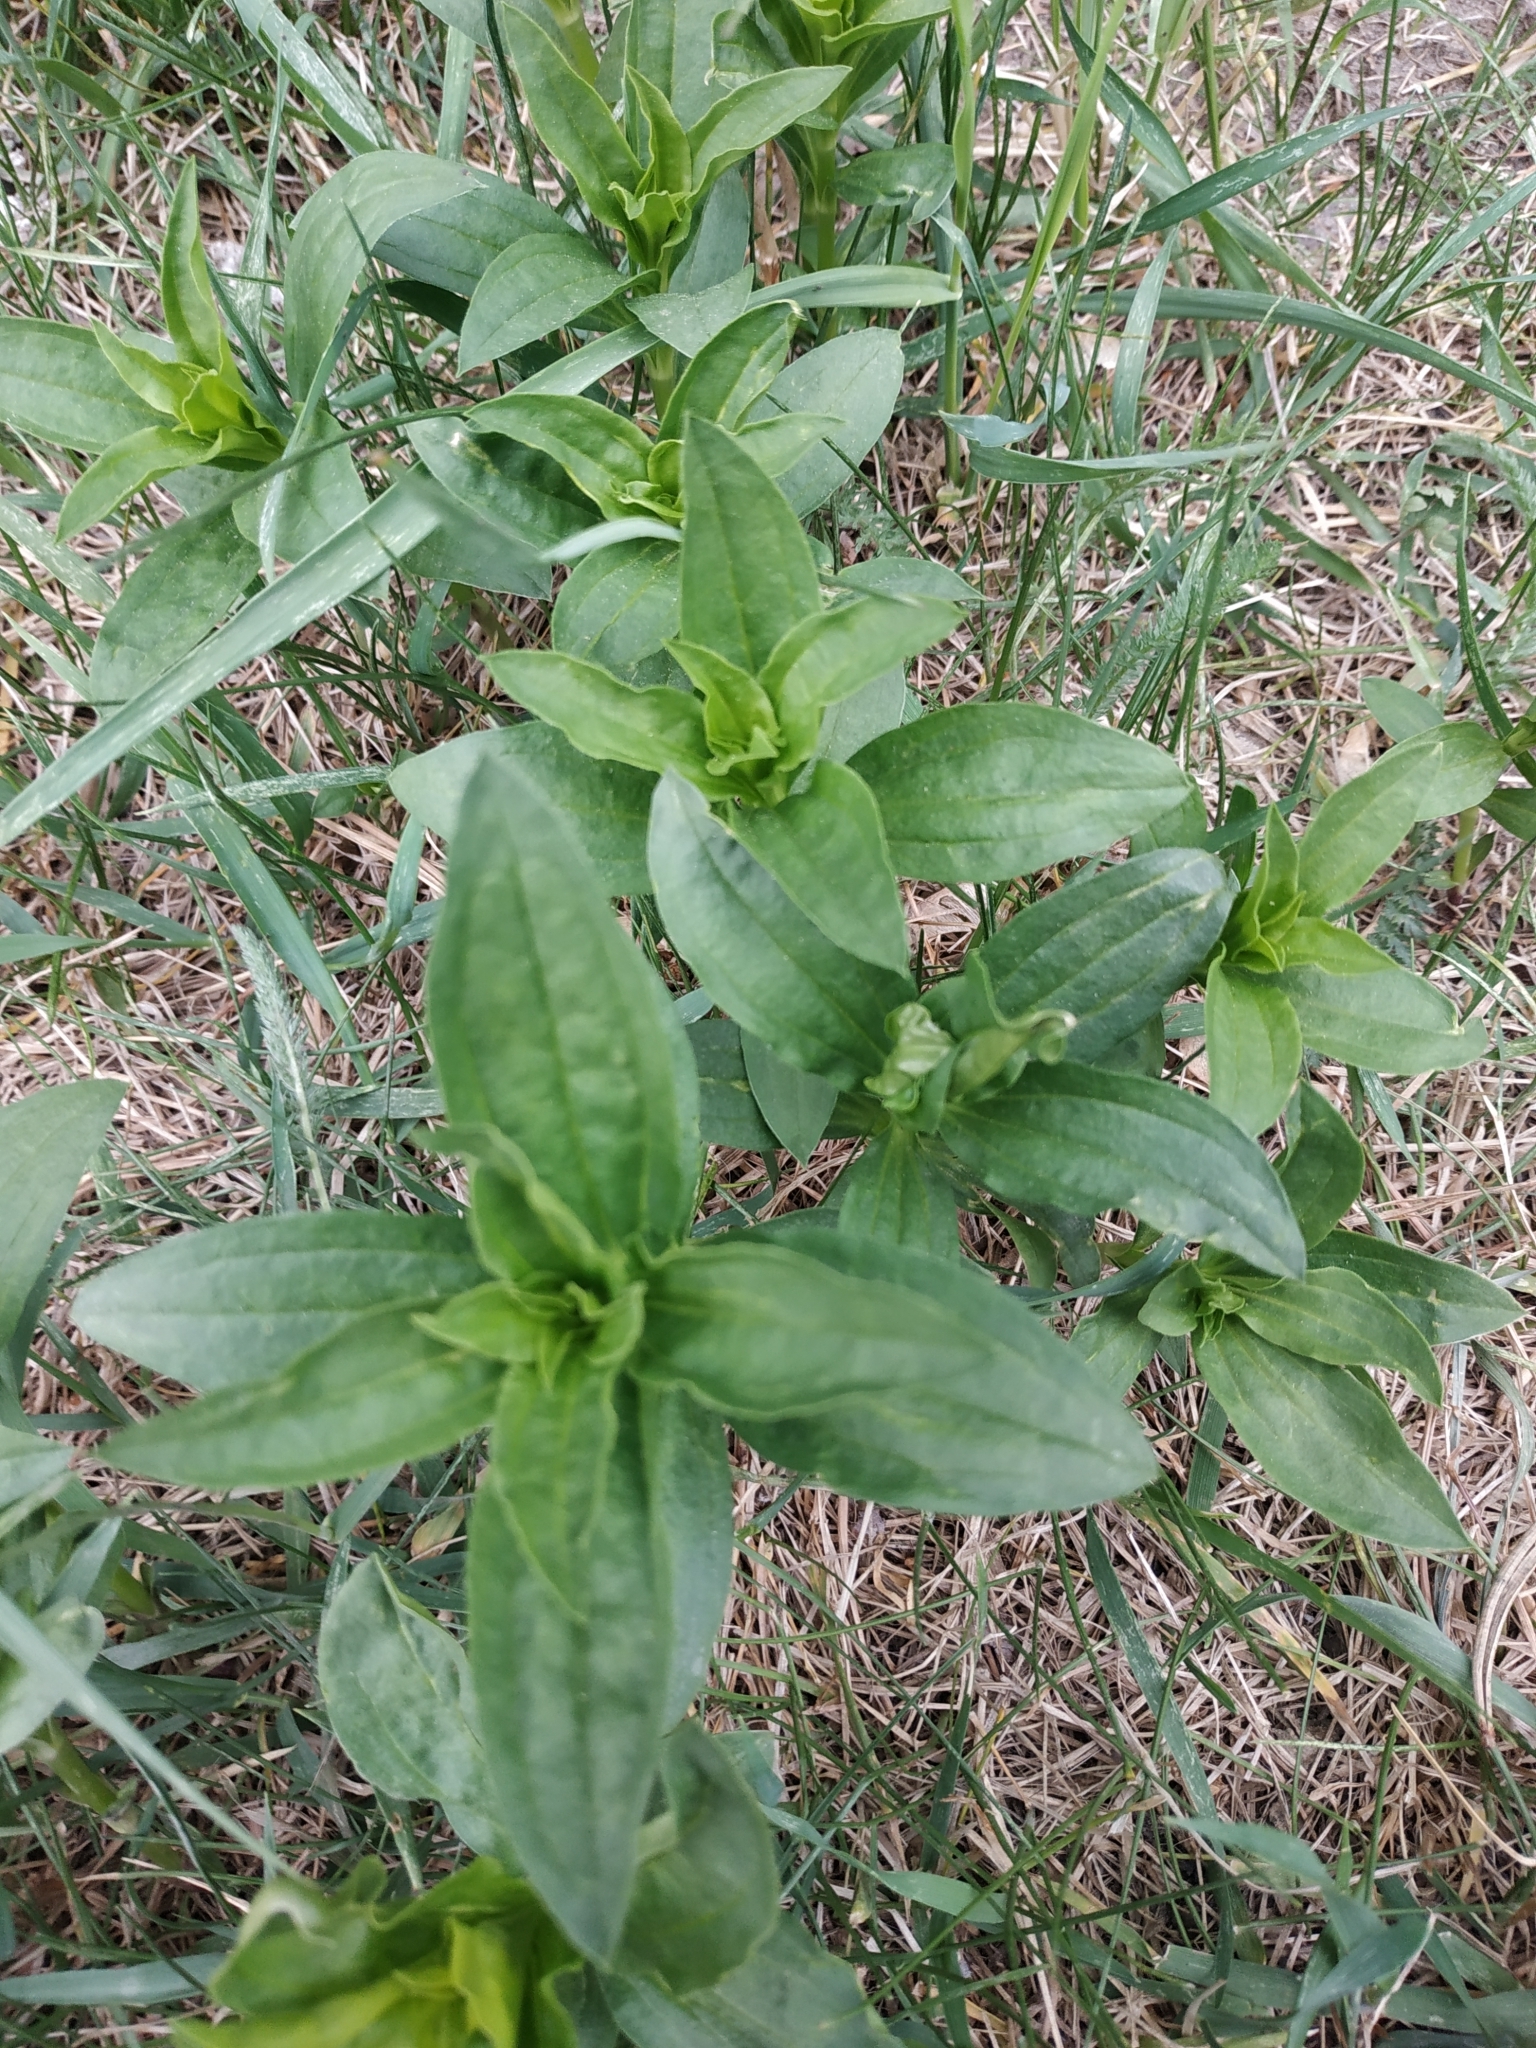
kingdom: Plantae
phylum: Tracheophyta
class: Magnoliopsida
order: Caryophyllales
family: Caryophyllaceae
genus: Saponaria
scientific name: Saponaria officinalis
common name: Soapwort
